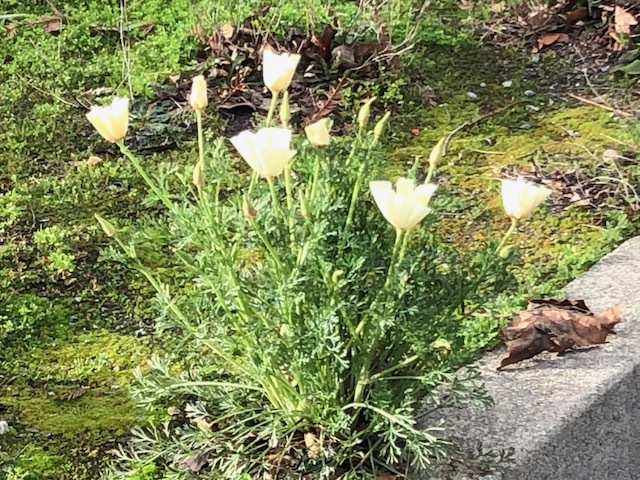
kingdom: Plantae
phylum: Tracheophyta
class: Magnoliopsida
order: Ranunculales
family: Papaveraceae
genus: Eschscholzia
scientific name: Eschscholzia californica
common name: California poppy
